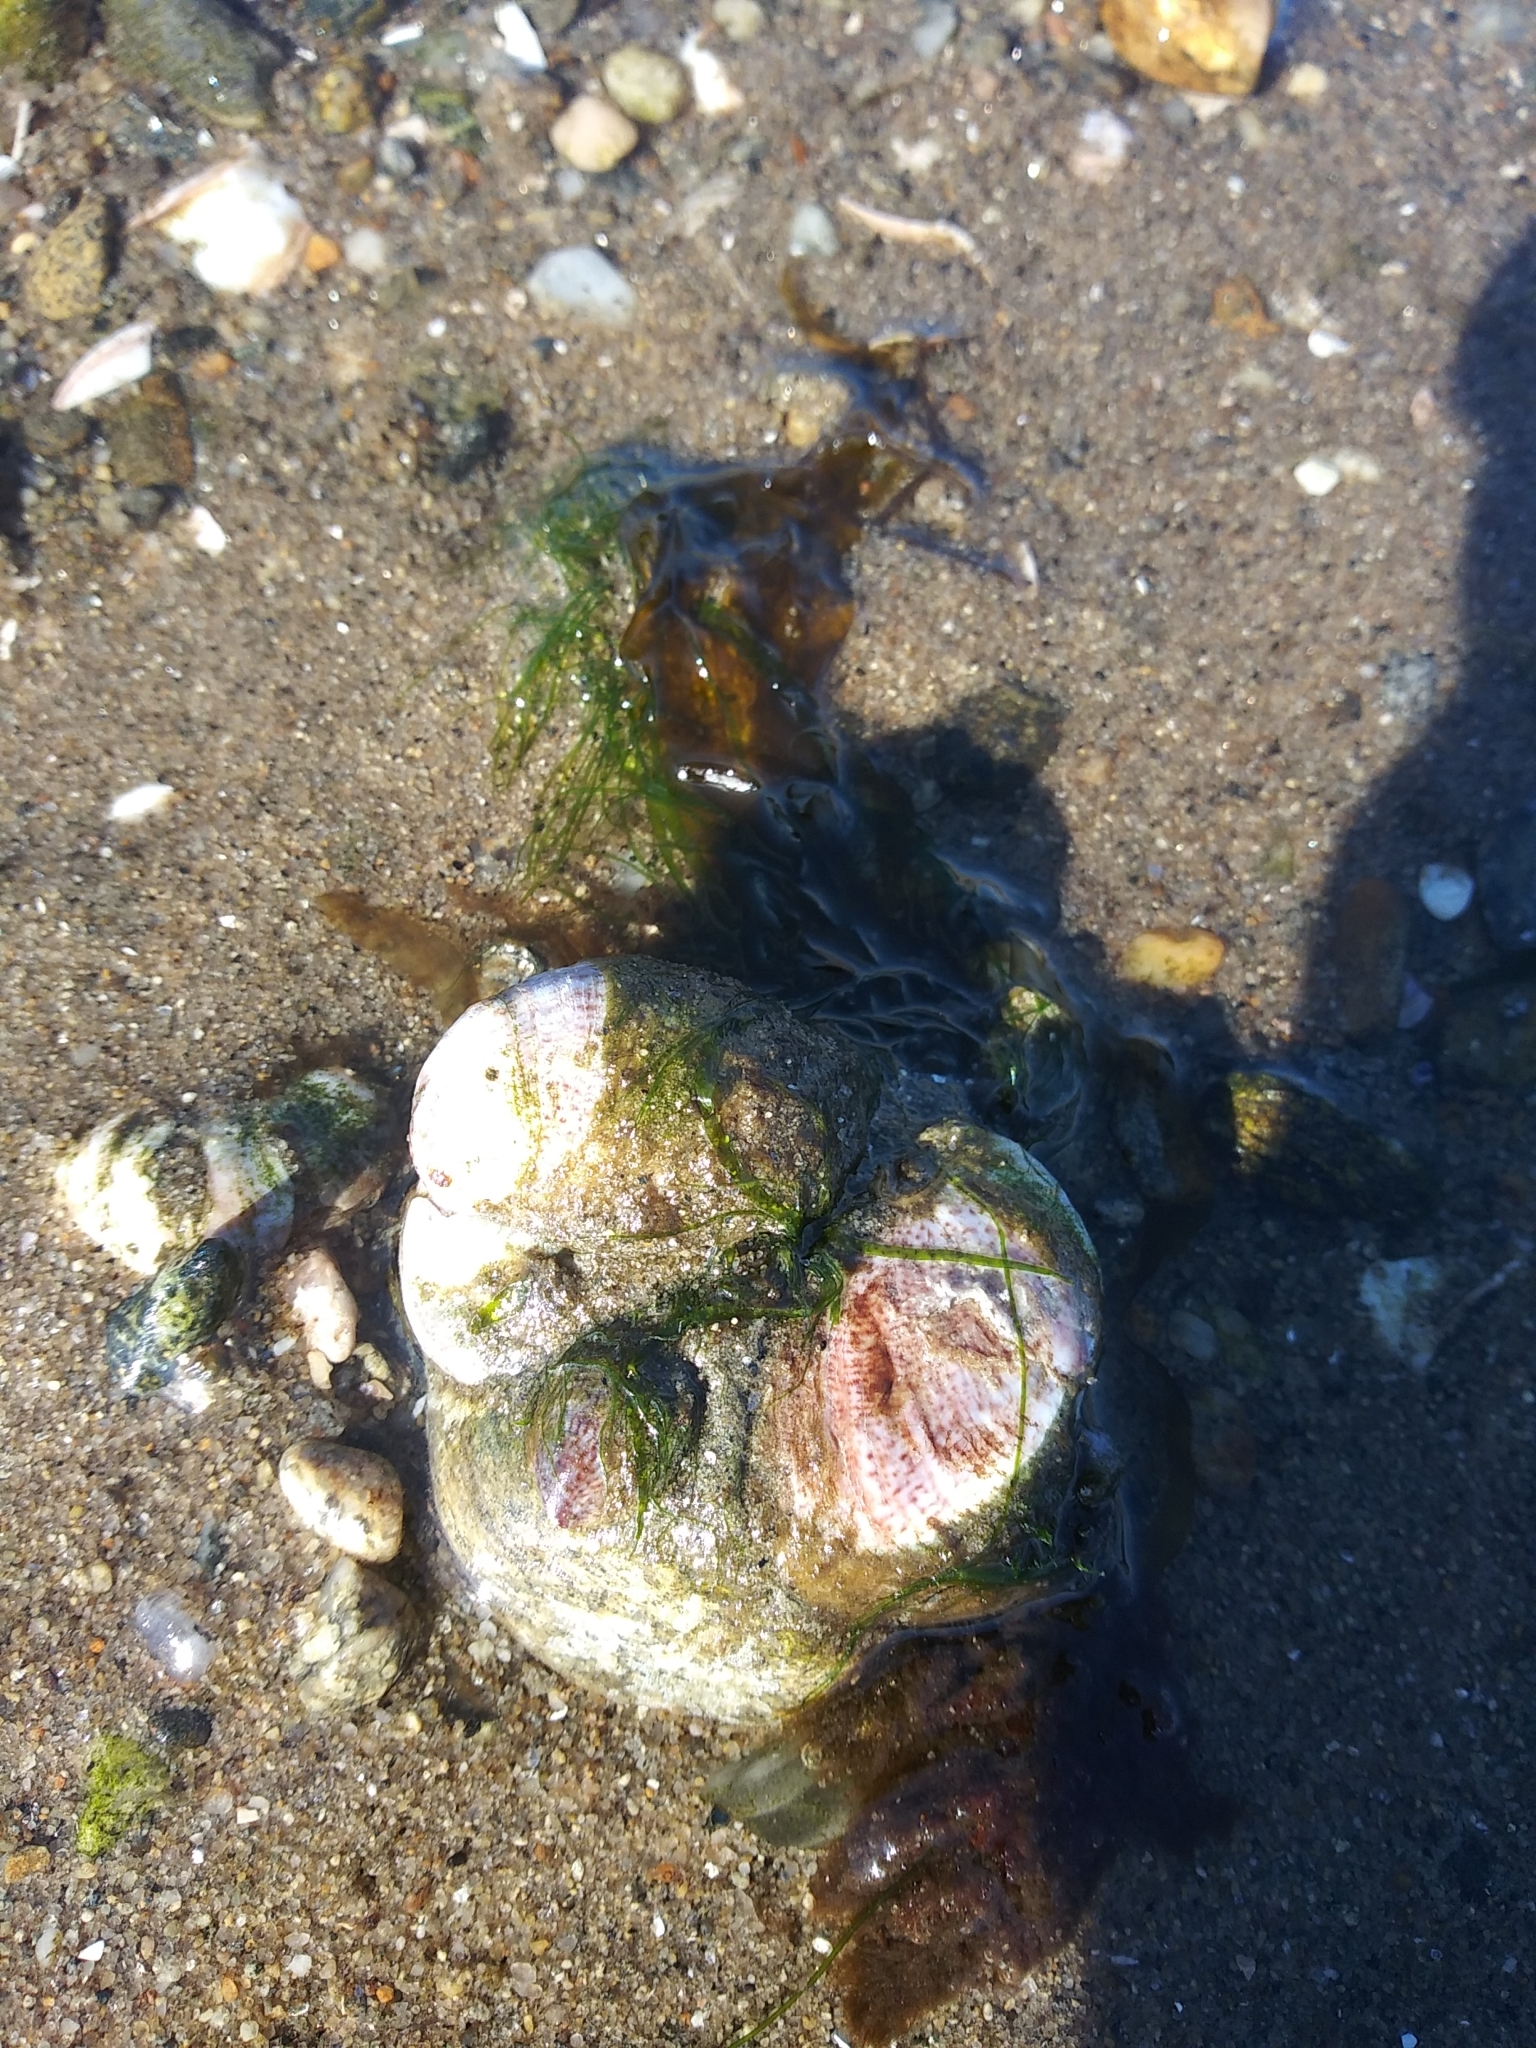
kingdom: Animalia
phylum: Mollusca
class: Gastropoda
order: Littorinimorpha
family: Calyptraeidae
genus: Crepidula
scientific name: Crepidula fornicata
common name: Slipper limpet
